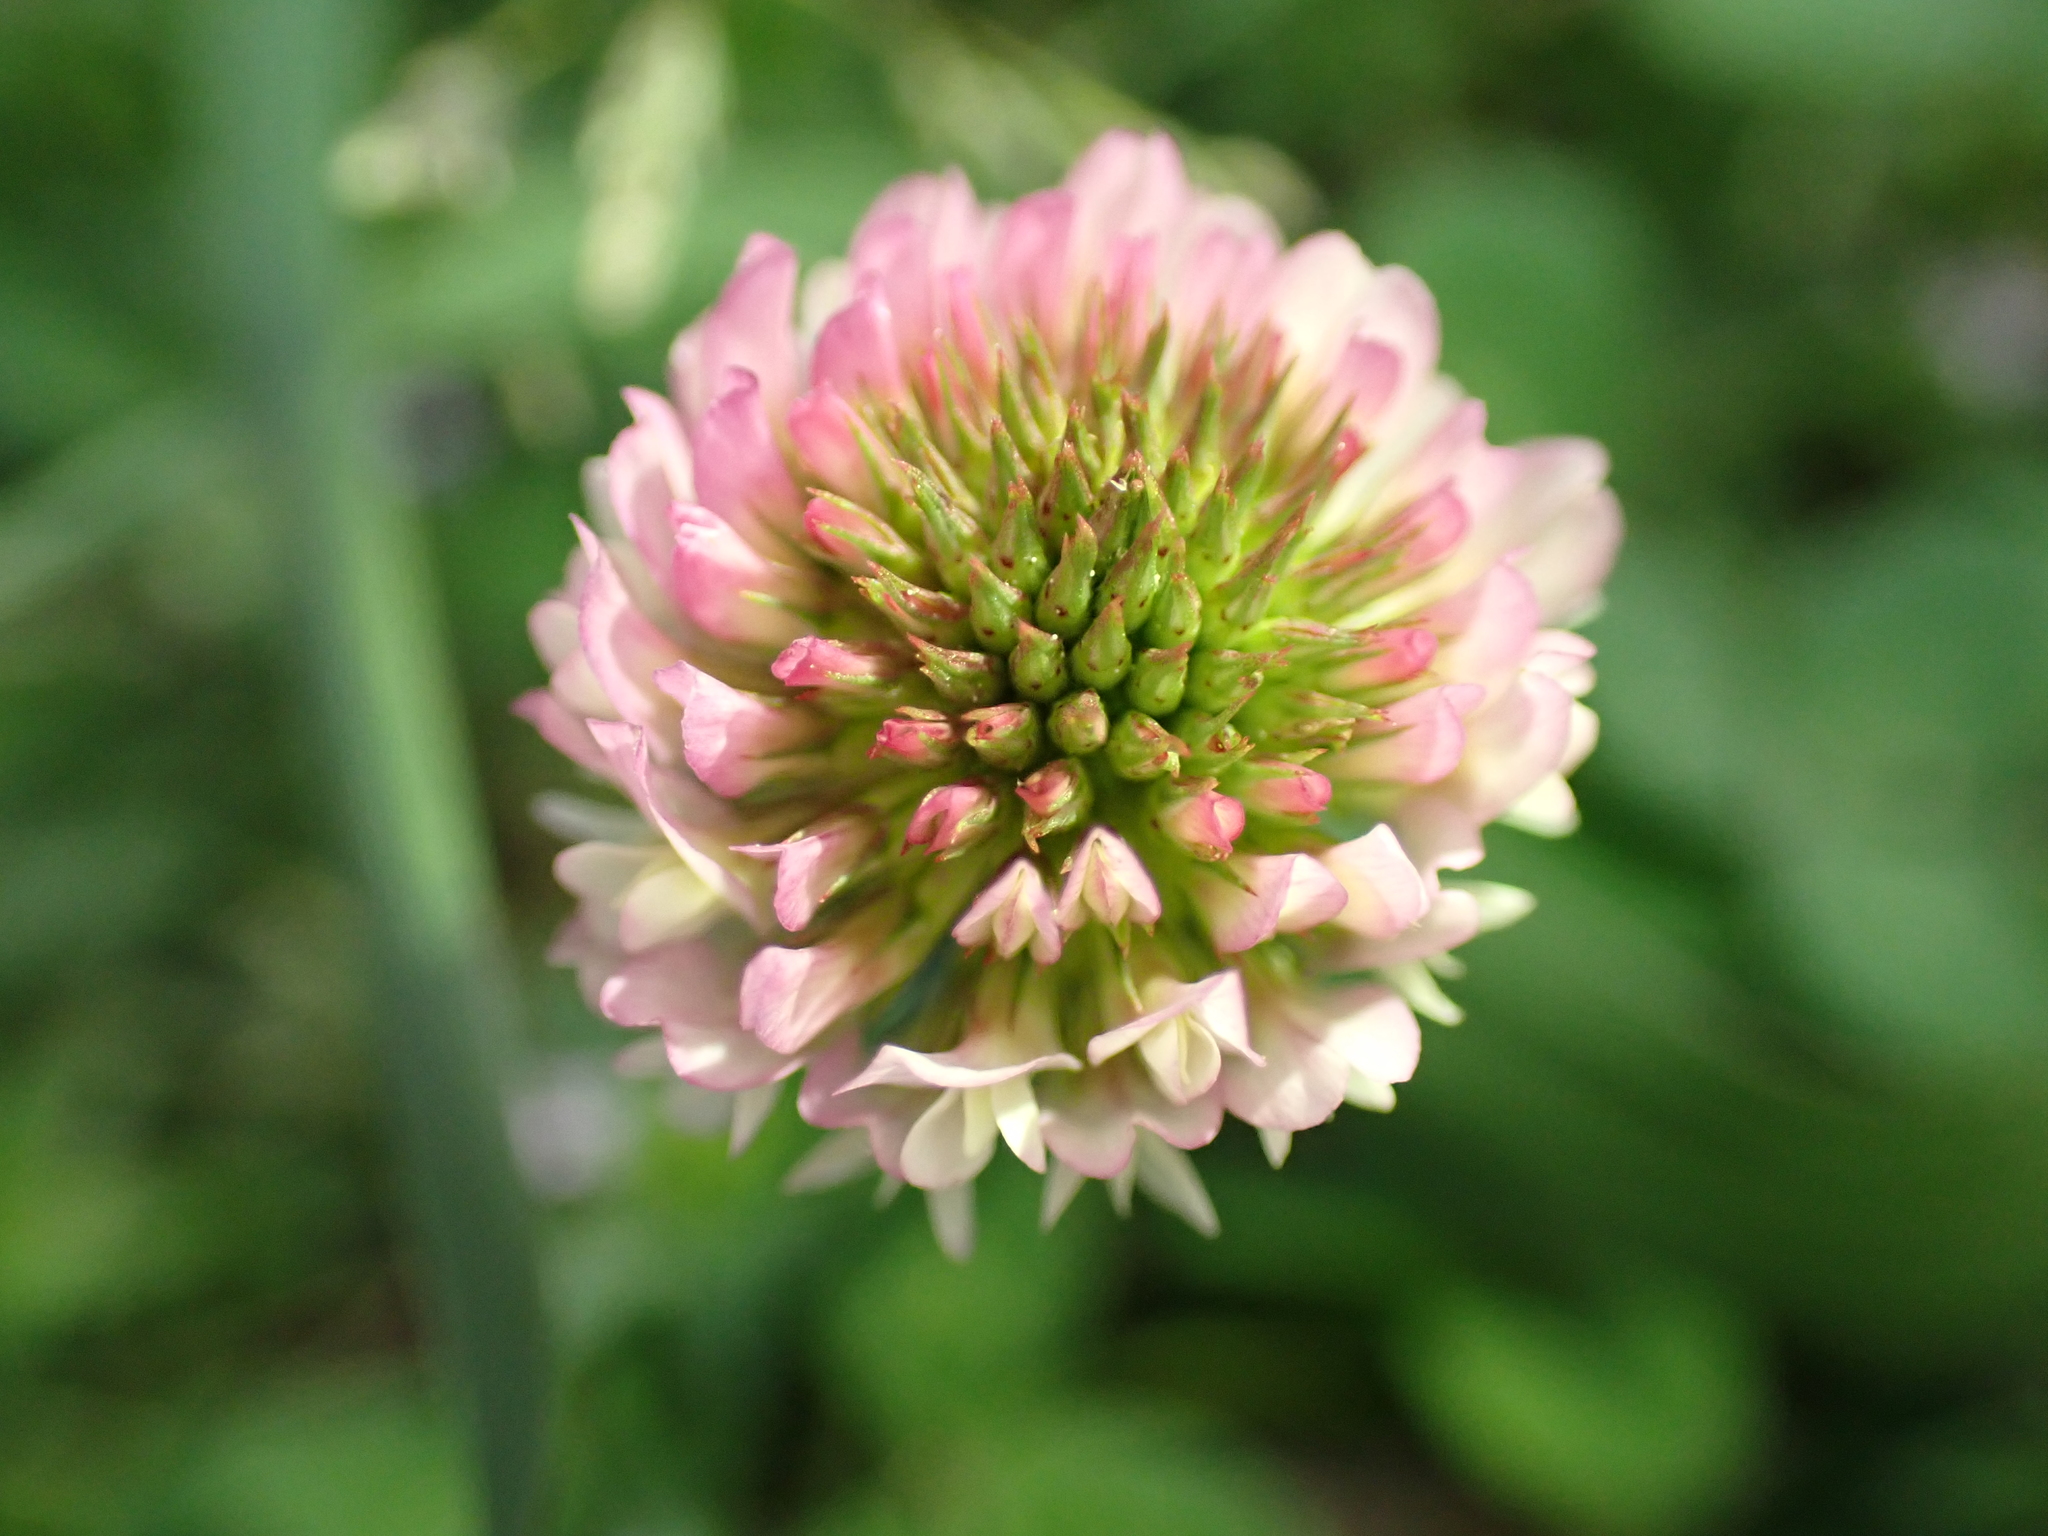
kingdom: Plantae
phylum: Tracheophyta
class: Magnoliopsida
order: Fabales
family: Fabaceae
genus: Trifolium
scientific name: Trifolium repens
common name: White clover
